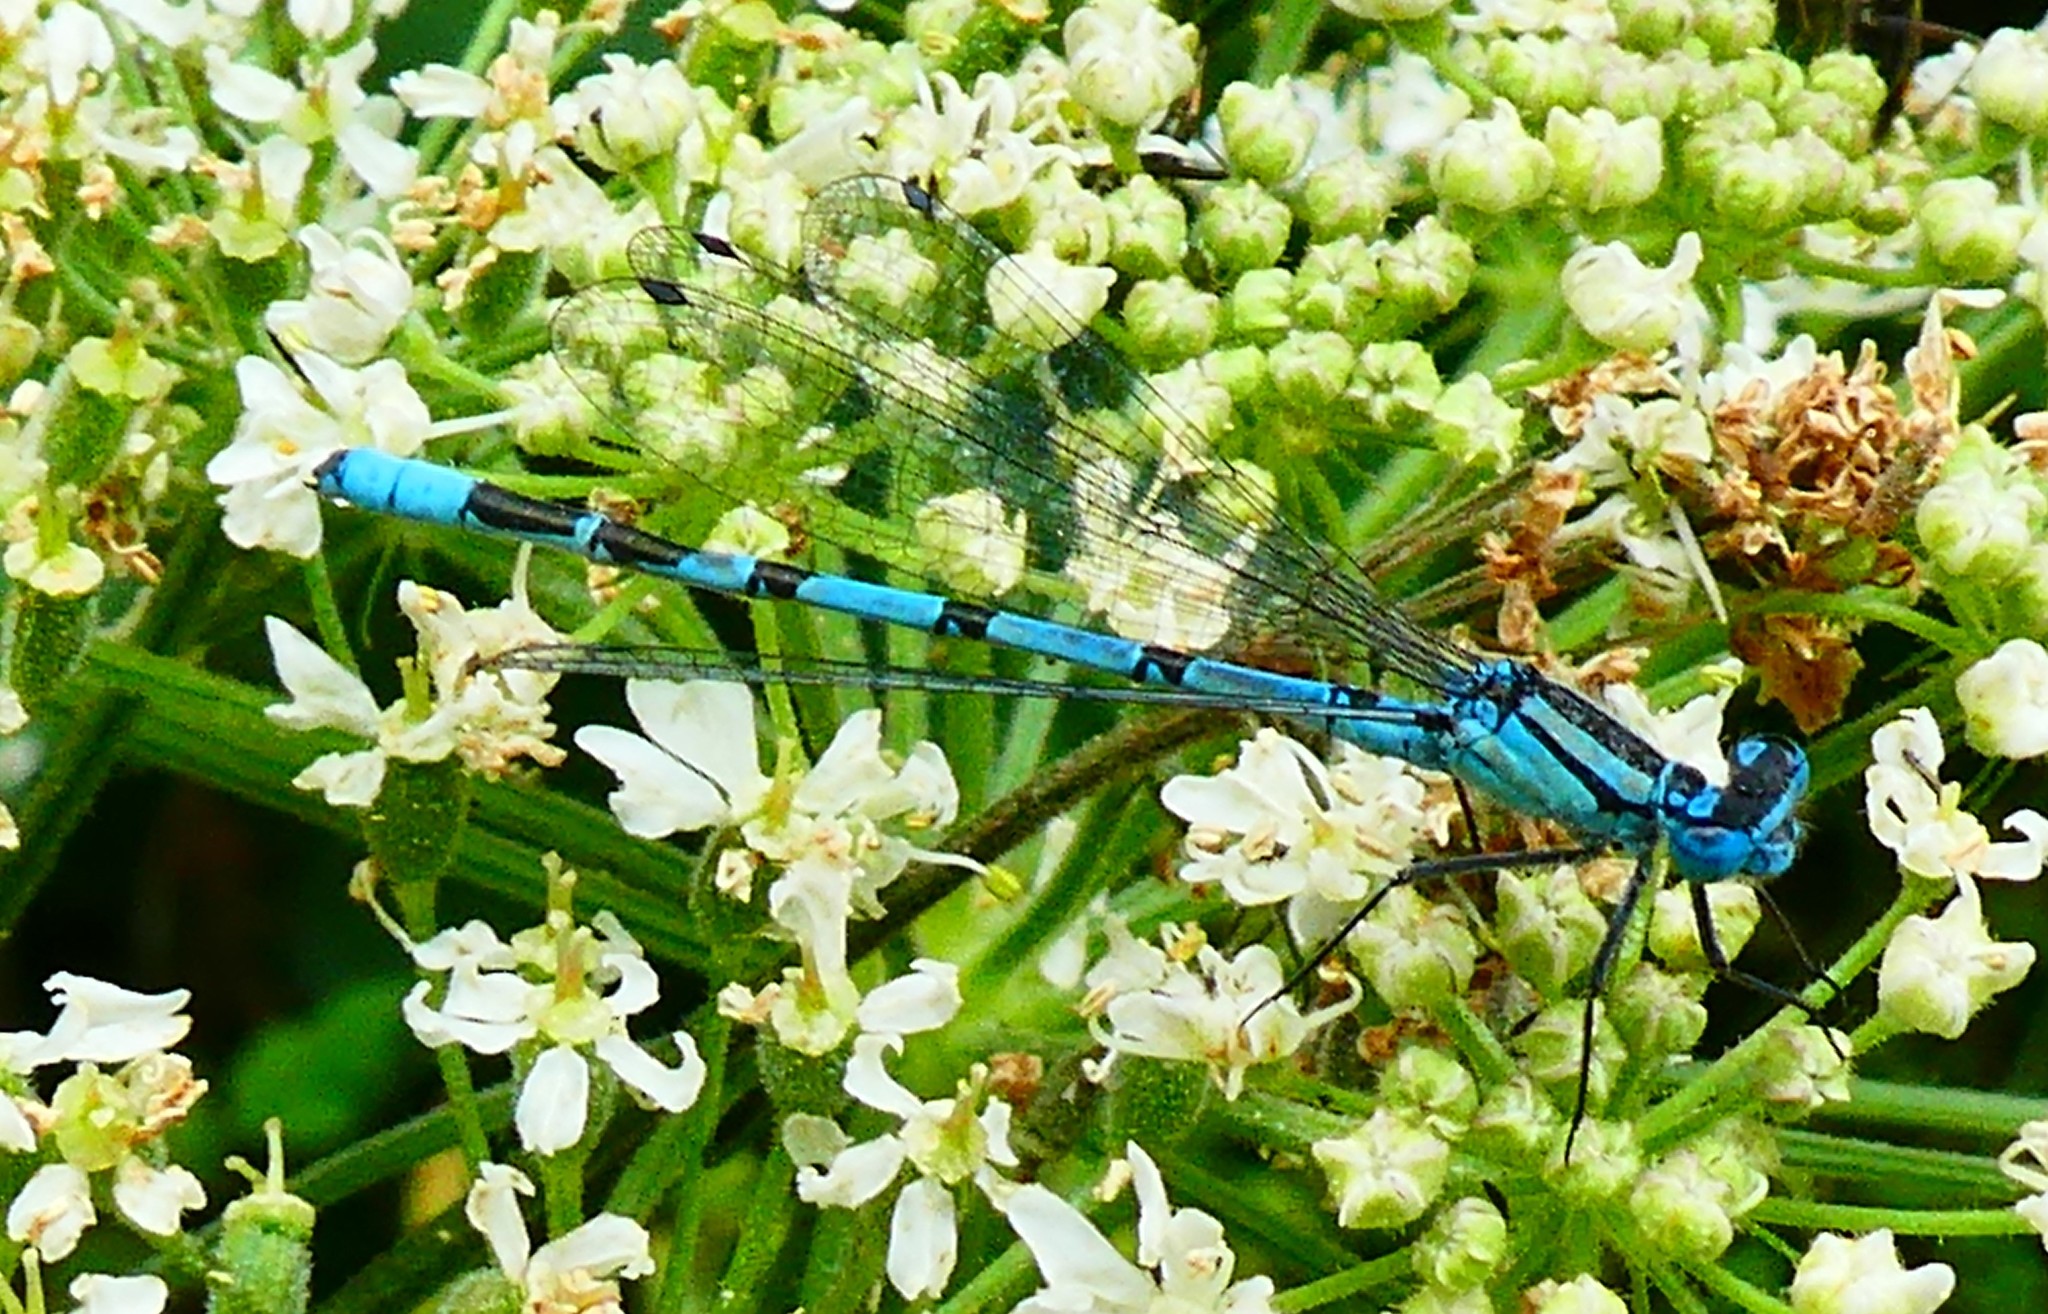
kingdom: Animalia
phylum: Arthropoda
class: Insecta
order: Odonata
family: Coenagrionidae
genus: Enallagma
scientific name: Enallagma cyathigerum
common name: Common blue damselfly
